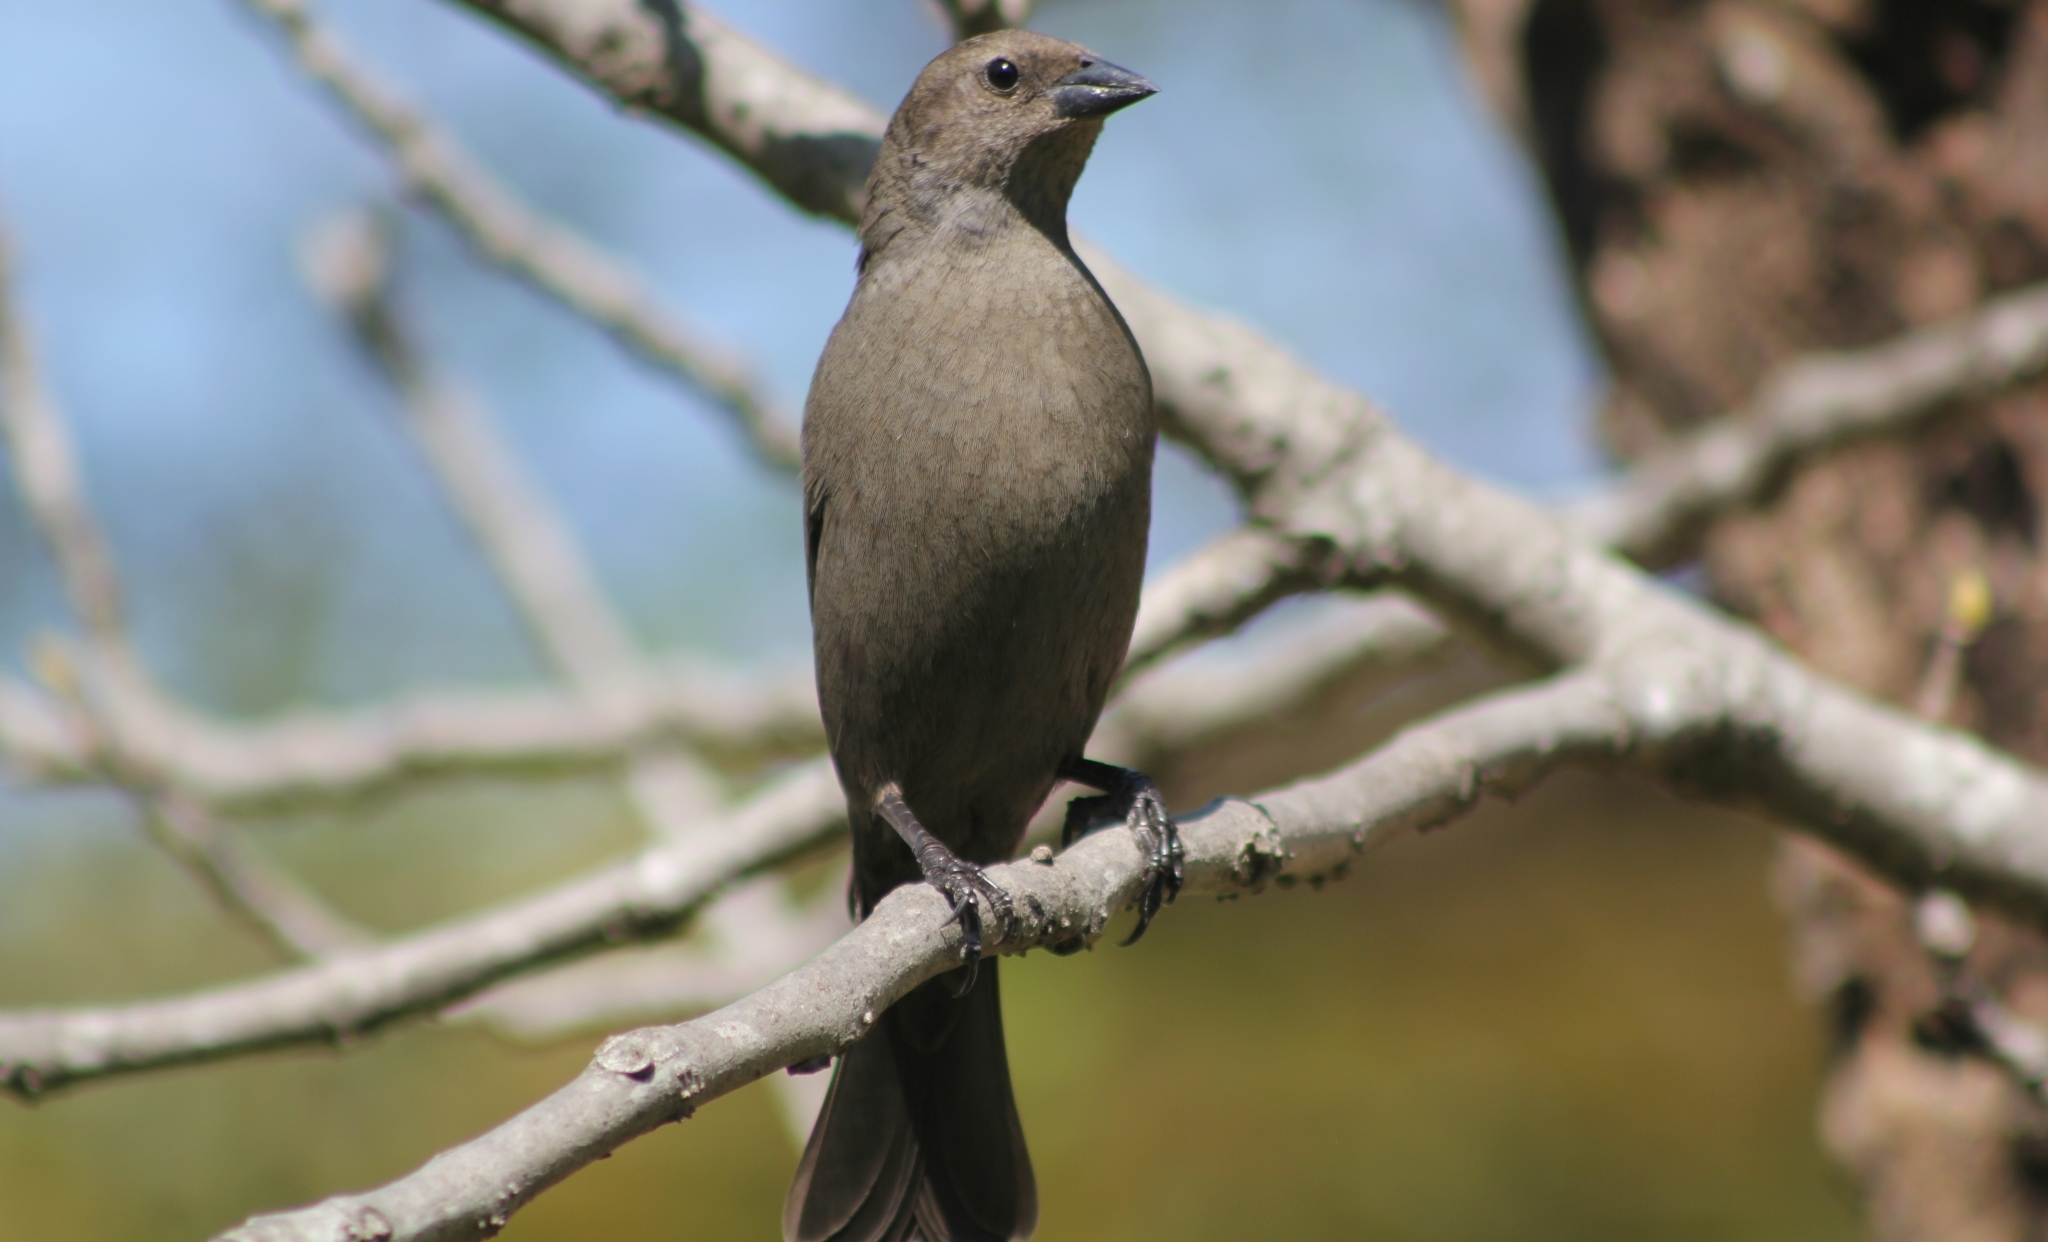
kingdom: Animalia
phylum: Chordata
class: Aves
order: Passeriformes
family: Icteridae
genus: Molothrus
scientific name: Molothrus bonariensis
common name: Shiny cowbird
